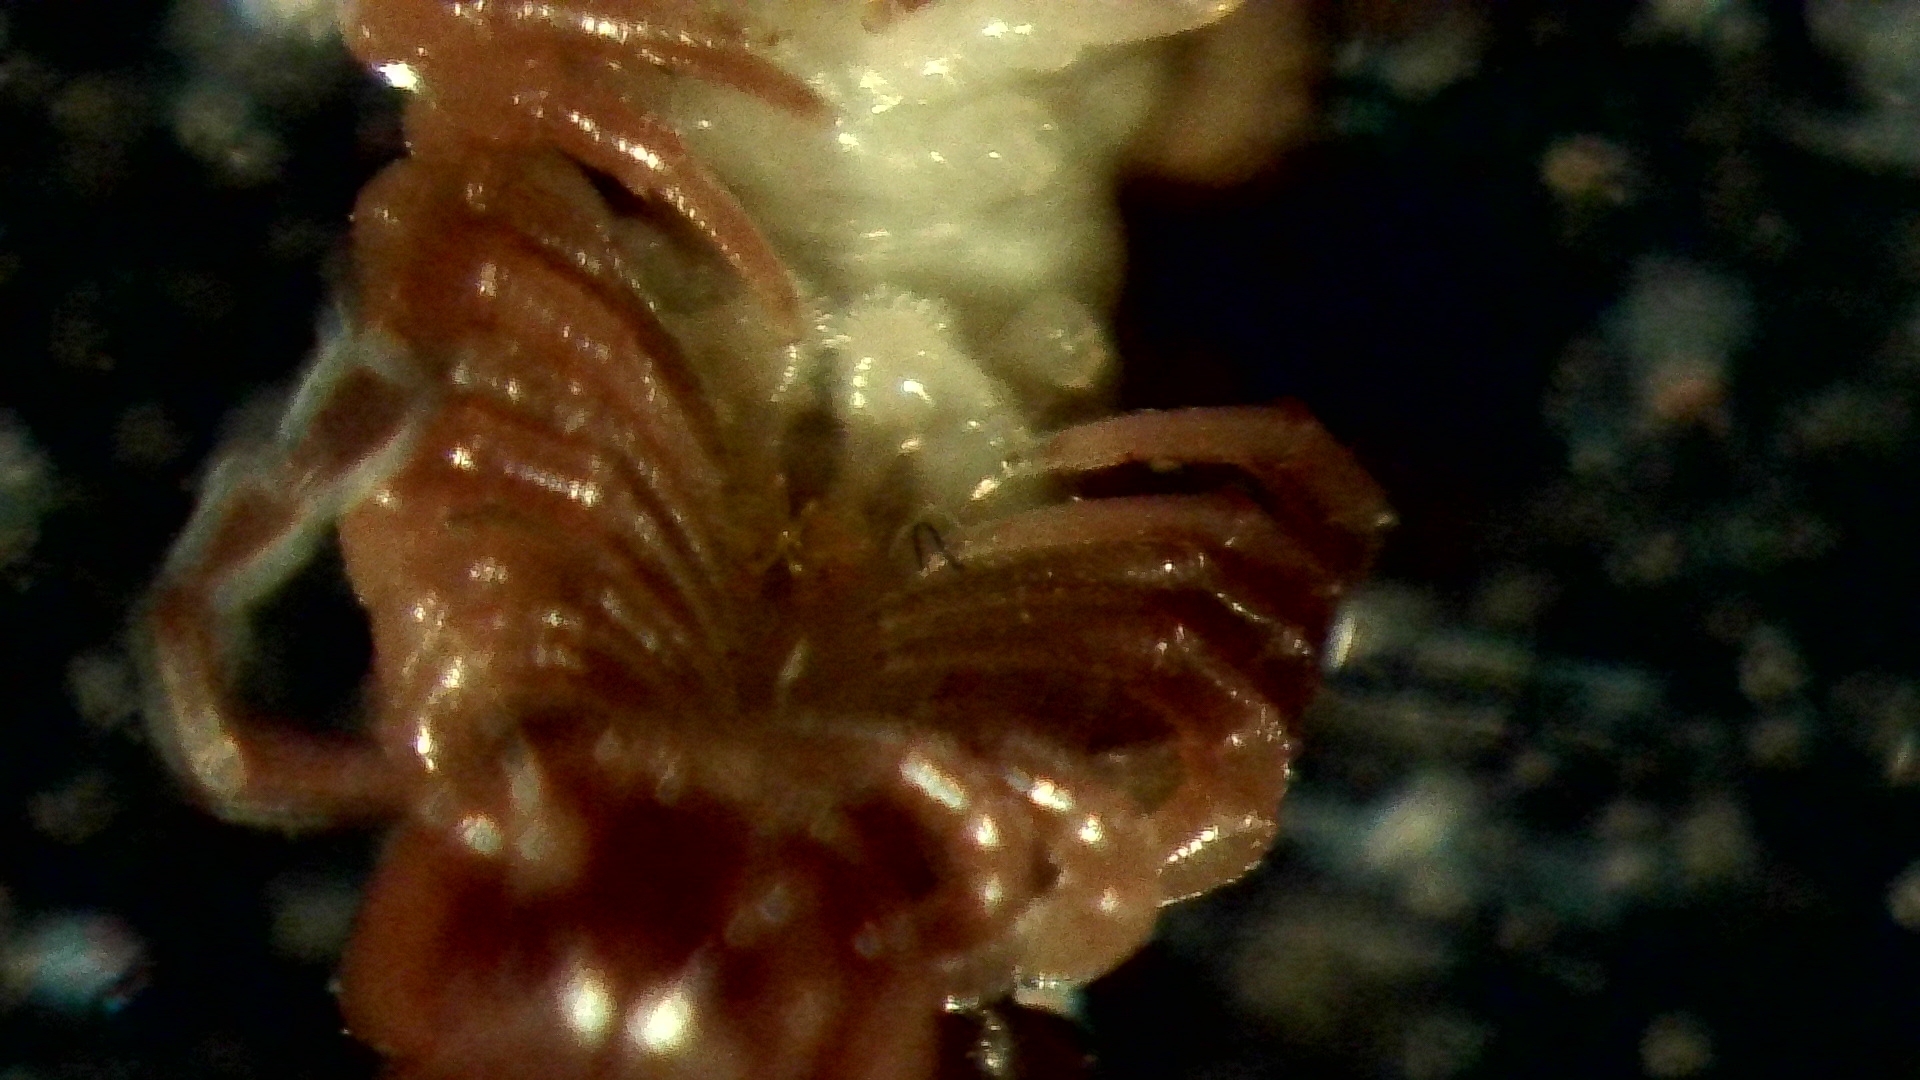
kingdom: Animalia
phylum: Arthropoda
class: Diplopoda
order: Polydesmida
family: Polydesmidae
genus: Polydesmus
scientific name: Polydesmus angustus
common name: Flat millipede
